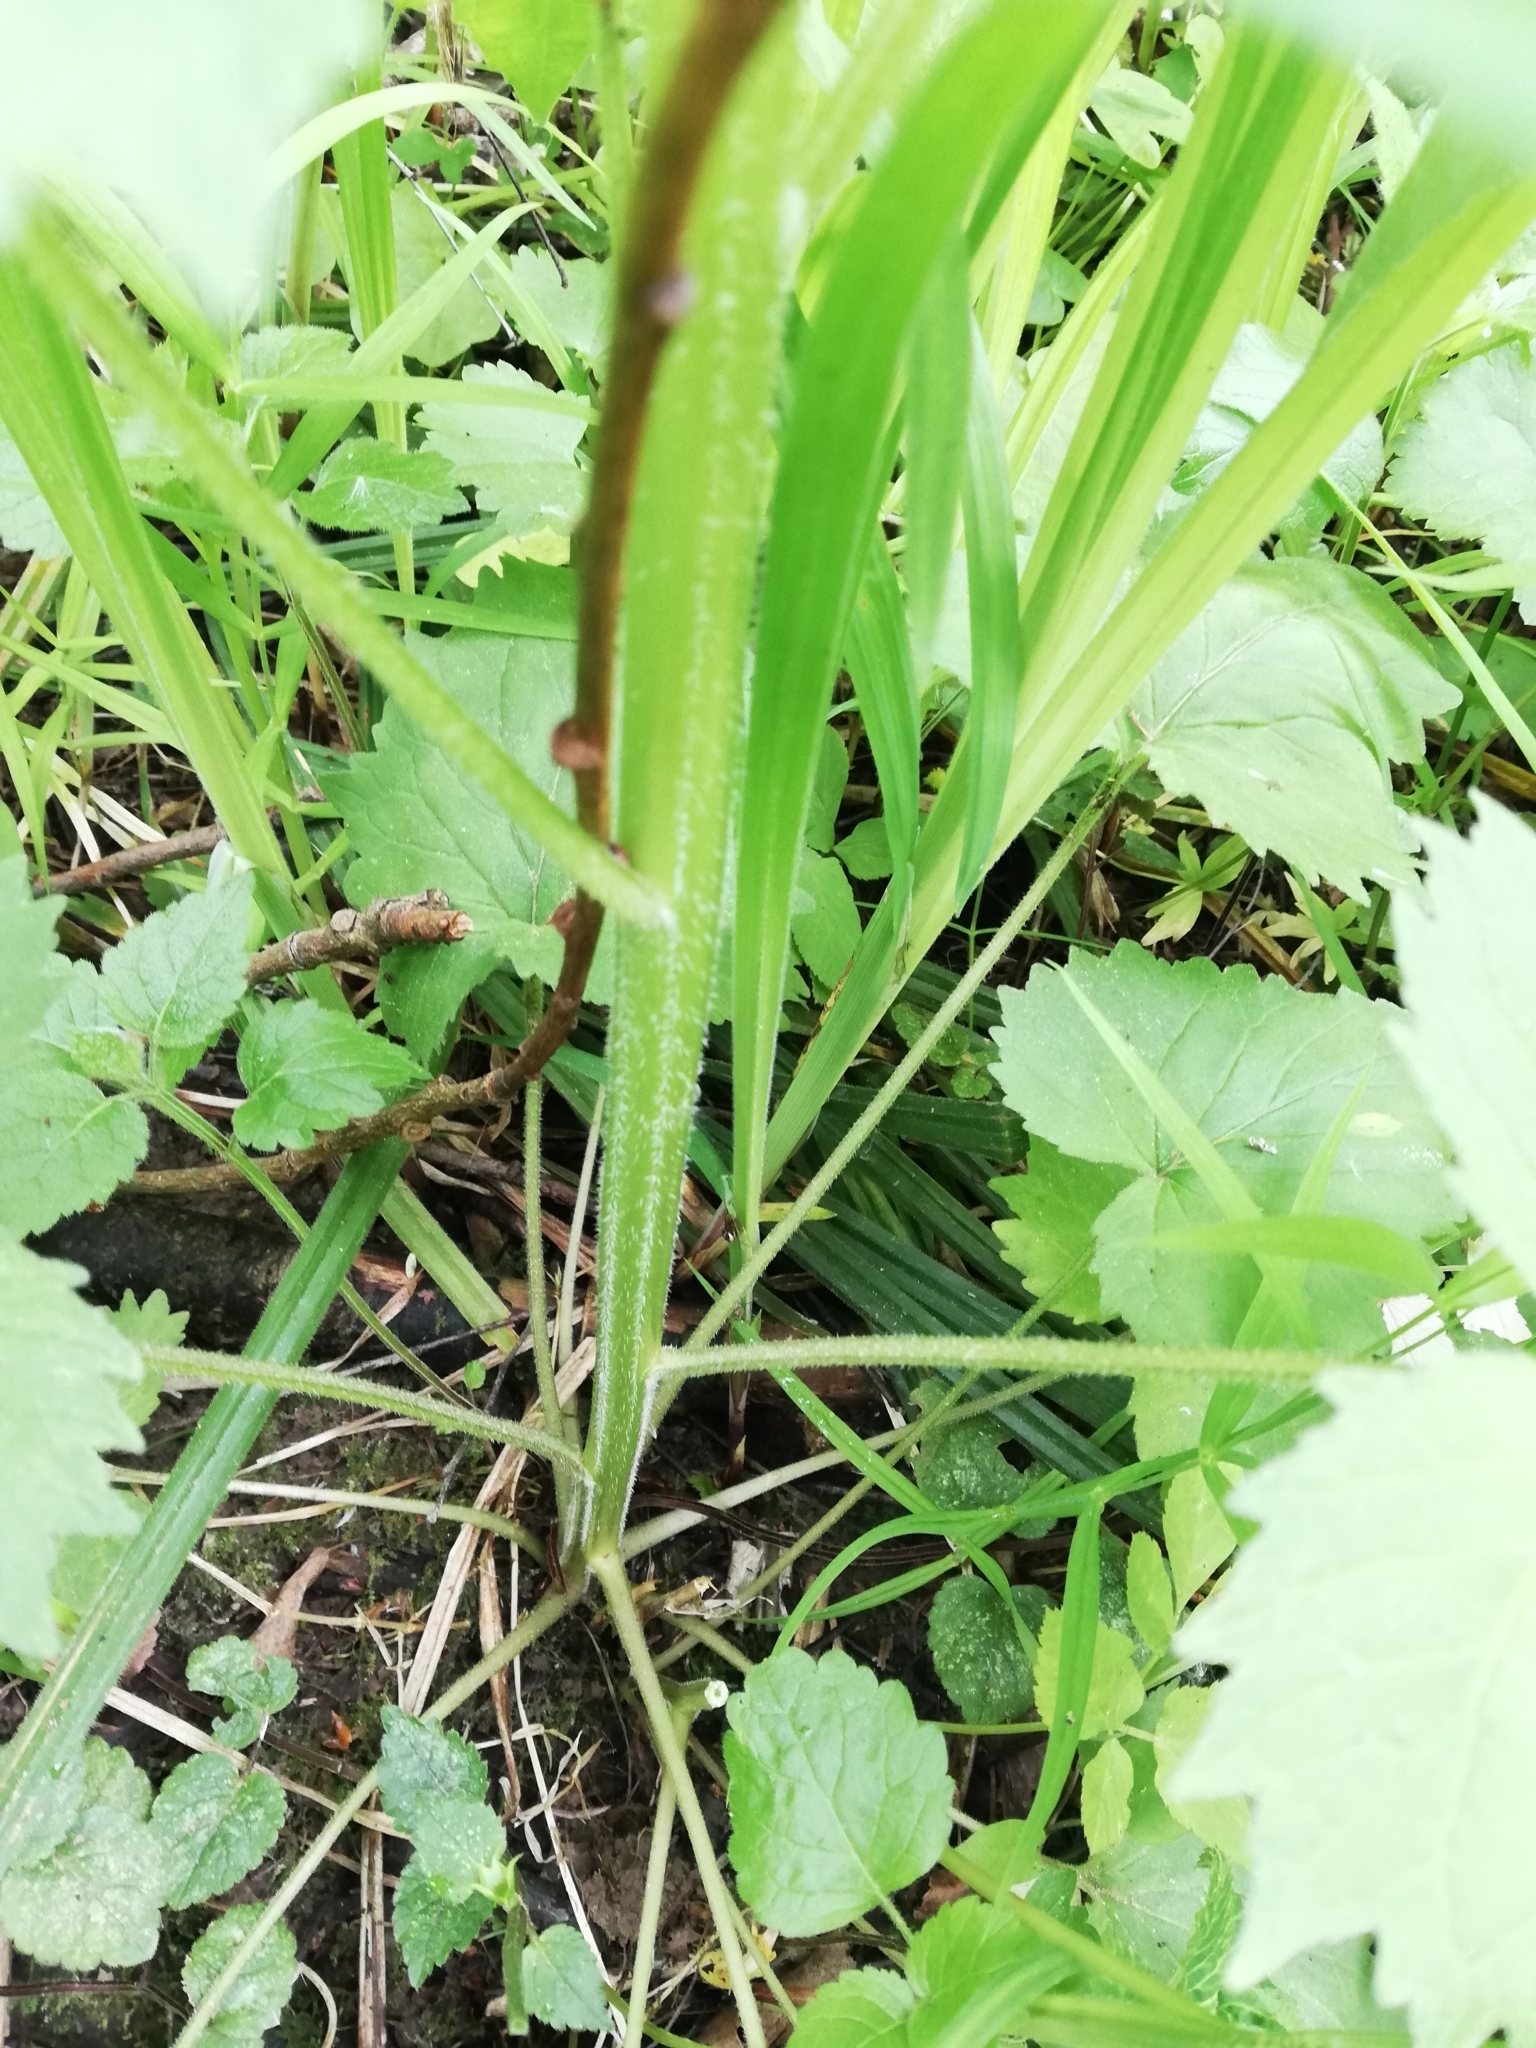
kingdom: Plantae
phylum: Tracheophyta
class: Magnoliopsida
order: Asterales
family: Campanulaceae
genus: Campanula
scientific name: Campanula trachelium
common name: Nettle-leaved bellflower
